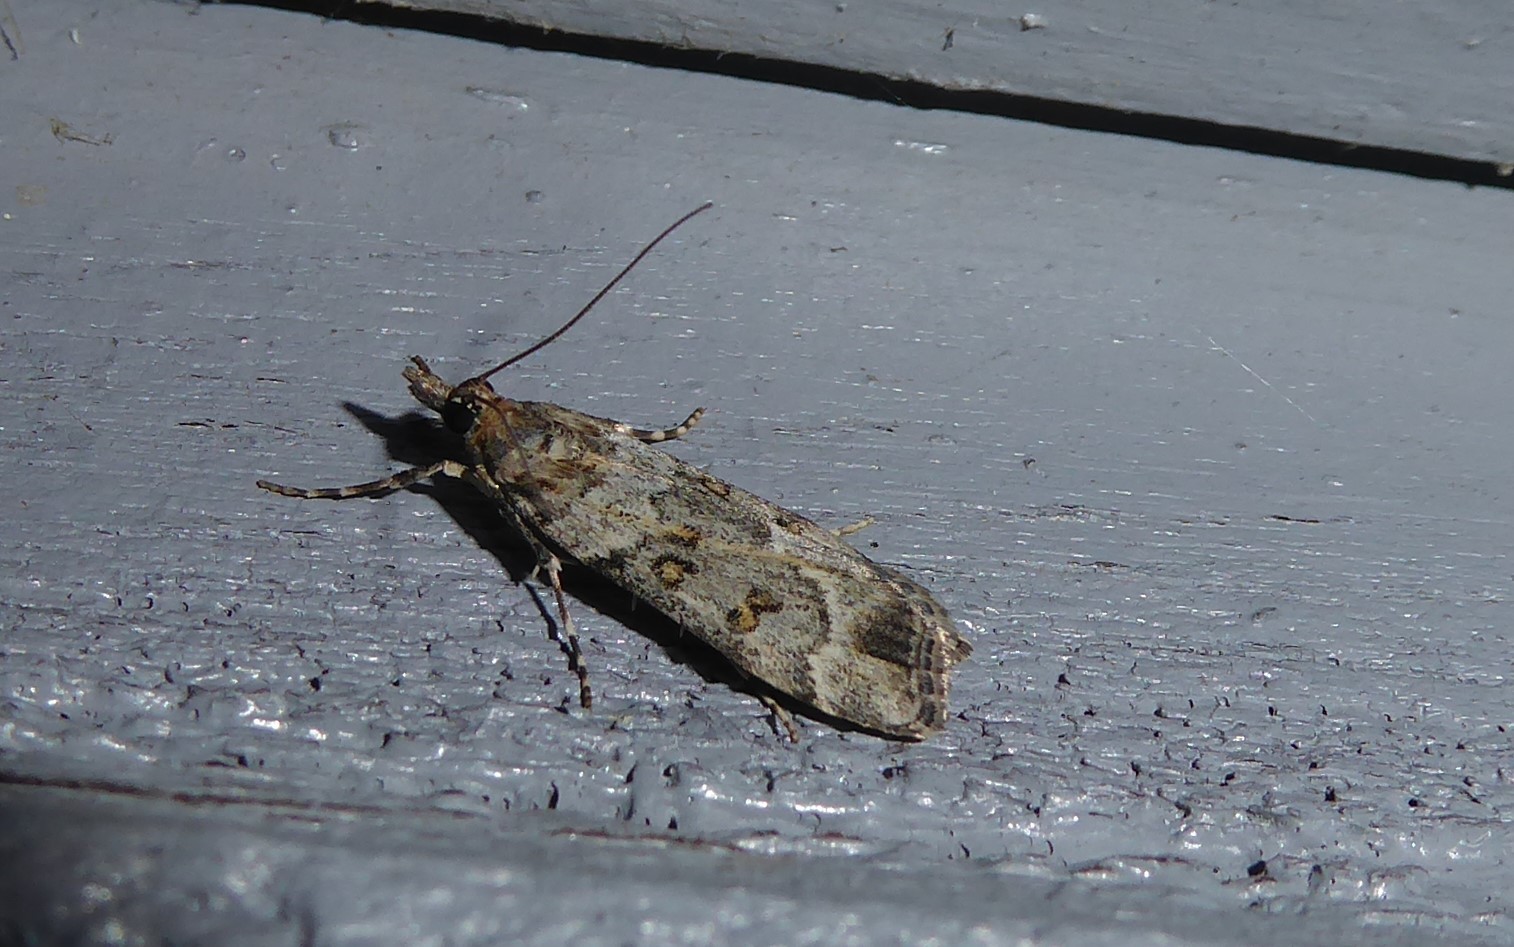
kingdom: Animalia
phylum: Arthropoda
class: Insecta
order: Lepidoptera
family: Crambidae
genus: Eudonia
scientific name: Eudonia diphtheralis
